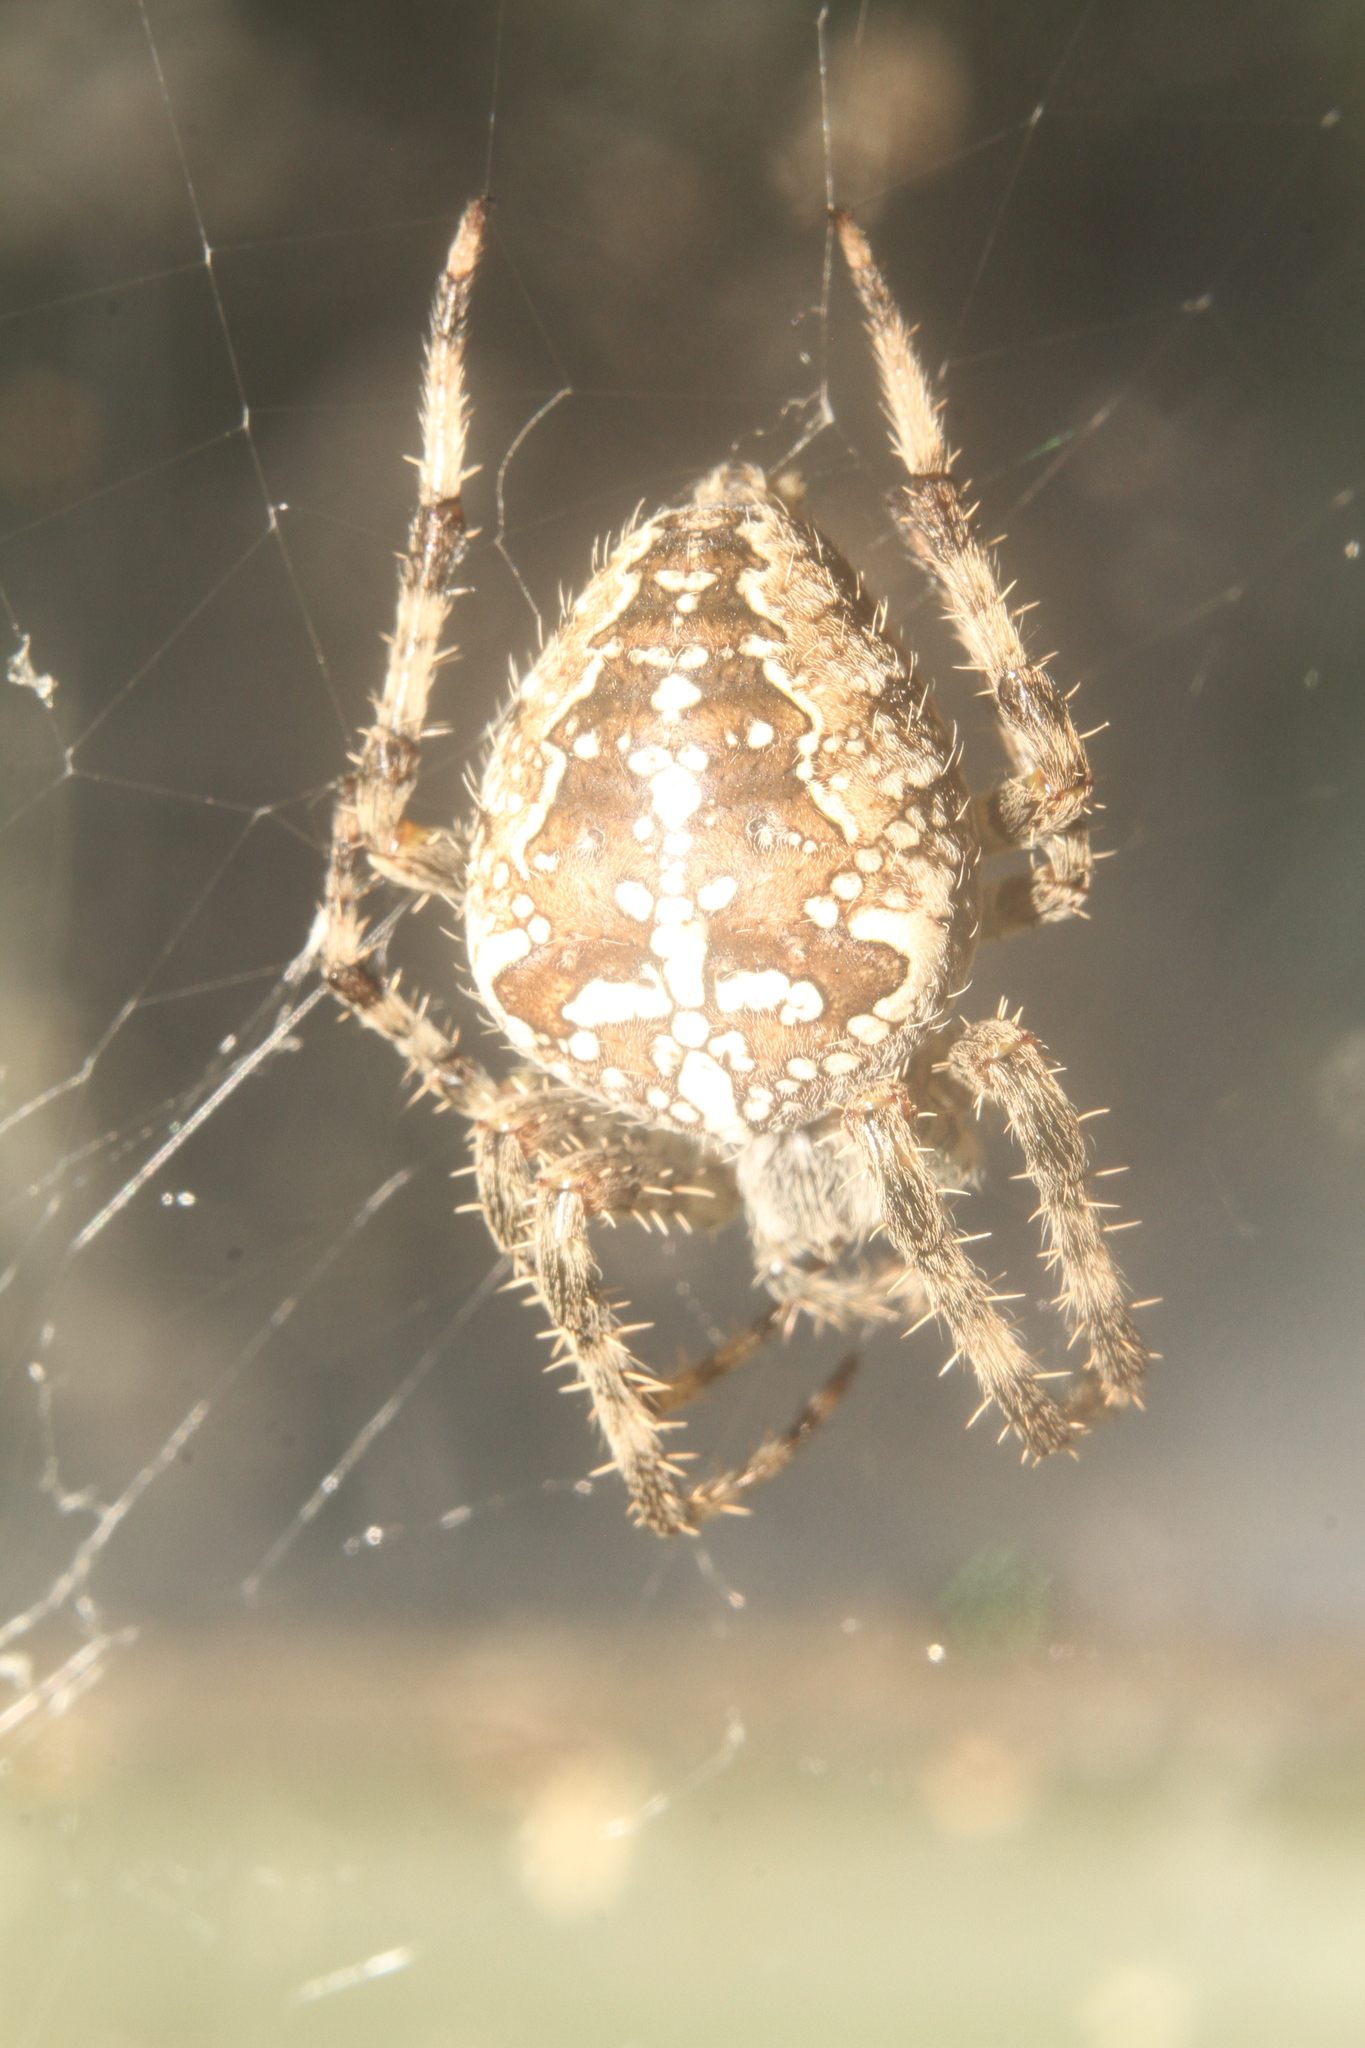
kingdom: Animalia
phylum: Arthropoda
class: Arachnida
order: Araneae
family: Araneidae
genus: Araneus
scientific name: Araneus diadematus
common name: Cross orbweaver
